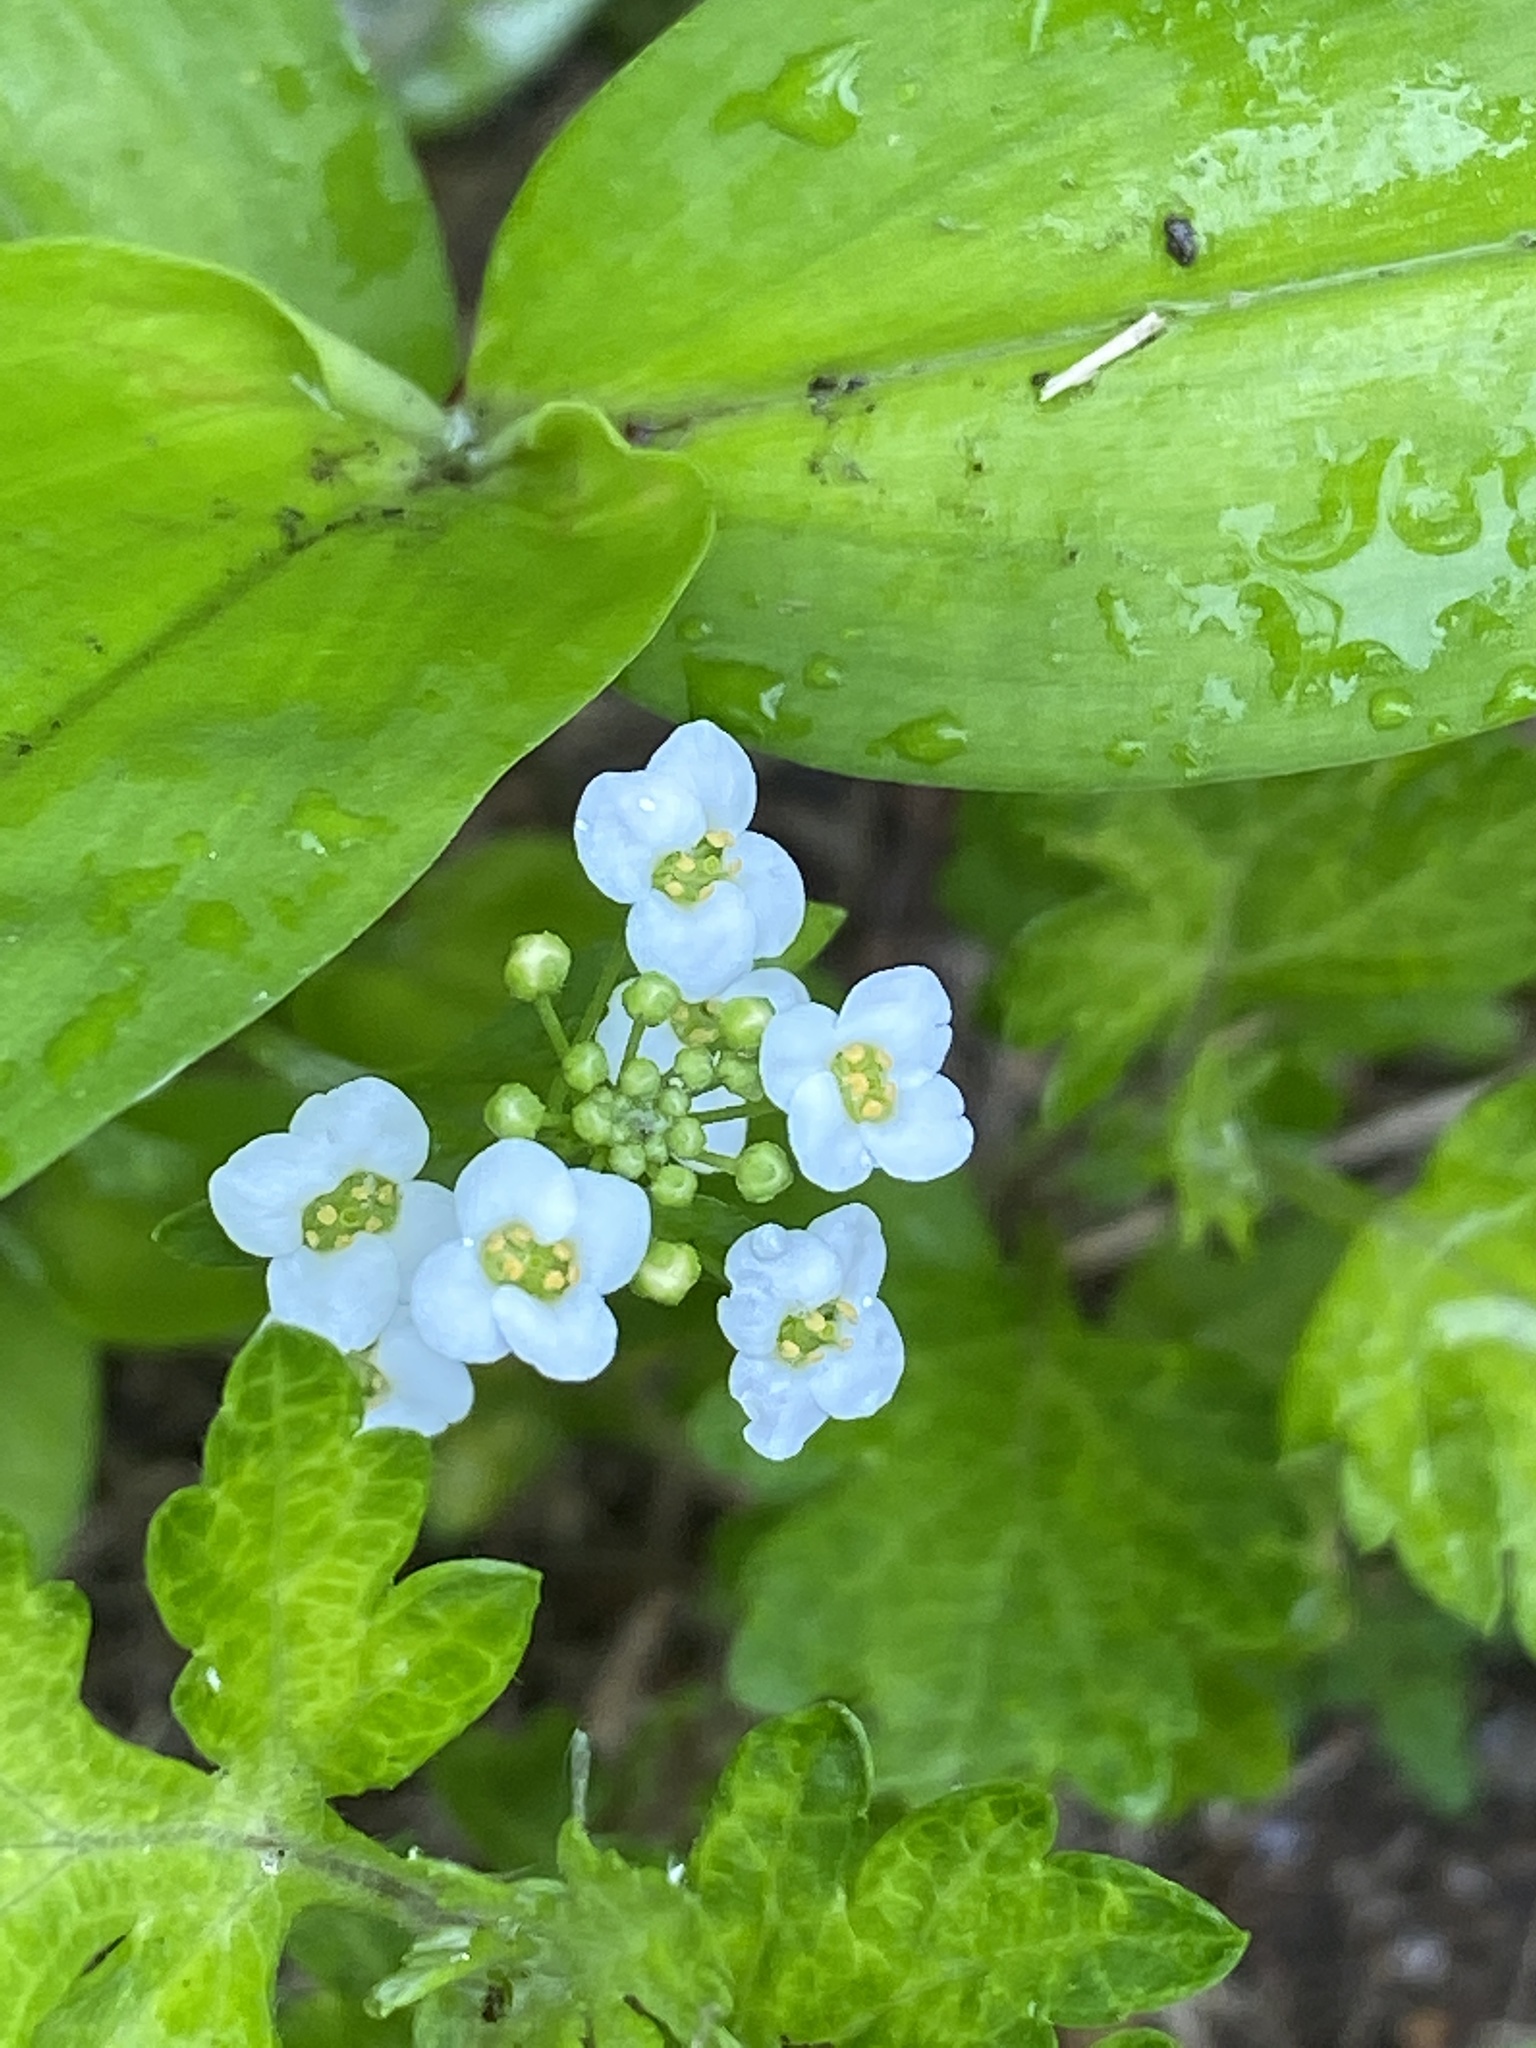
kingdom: Plantae
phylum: Tracheophyta
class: Magnoliopsida
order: Brassicales
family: Brassicaceae
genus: Lobularia
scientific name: Lobularia maritima
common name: Sweet alison
